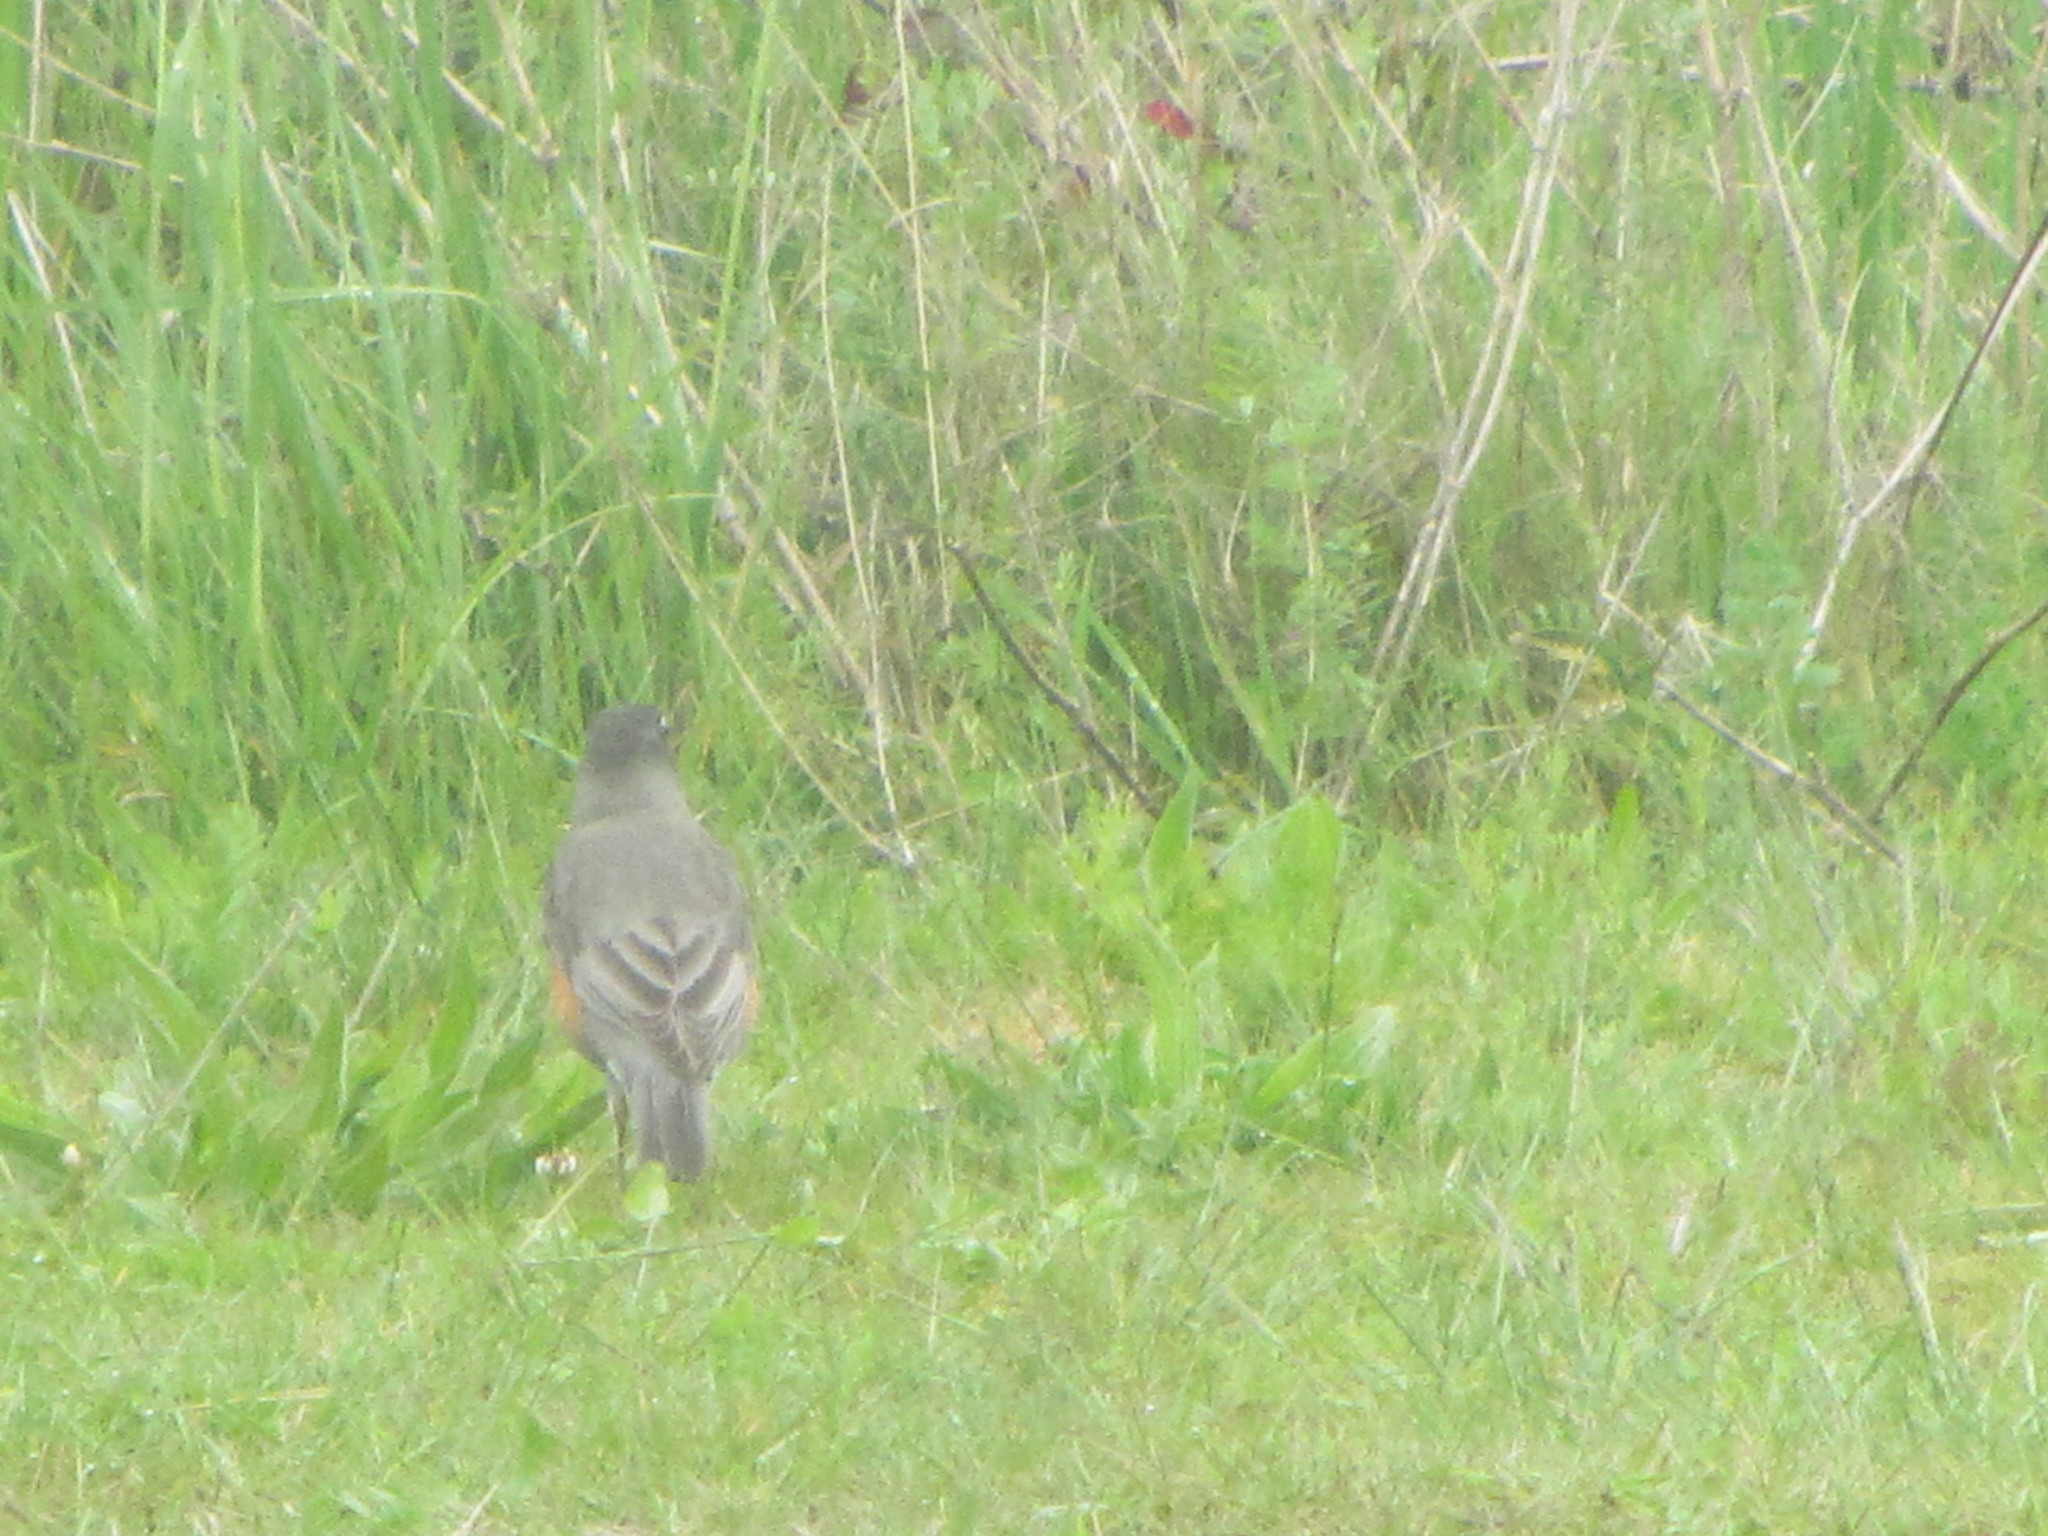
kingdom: Animalia
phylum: Chordata
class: Aves
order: Passeriformes
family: Turdidae
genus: Turdus
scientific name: Turdus migratorius
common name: American robin
